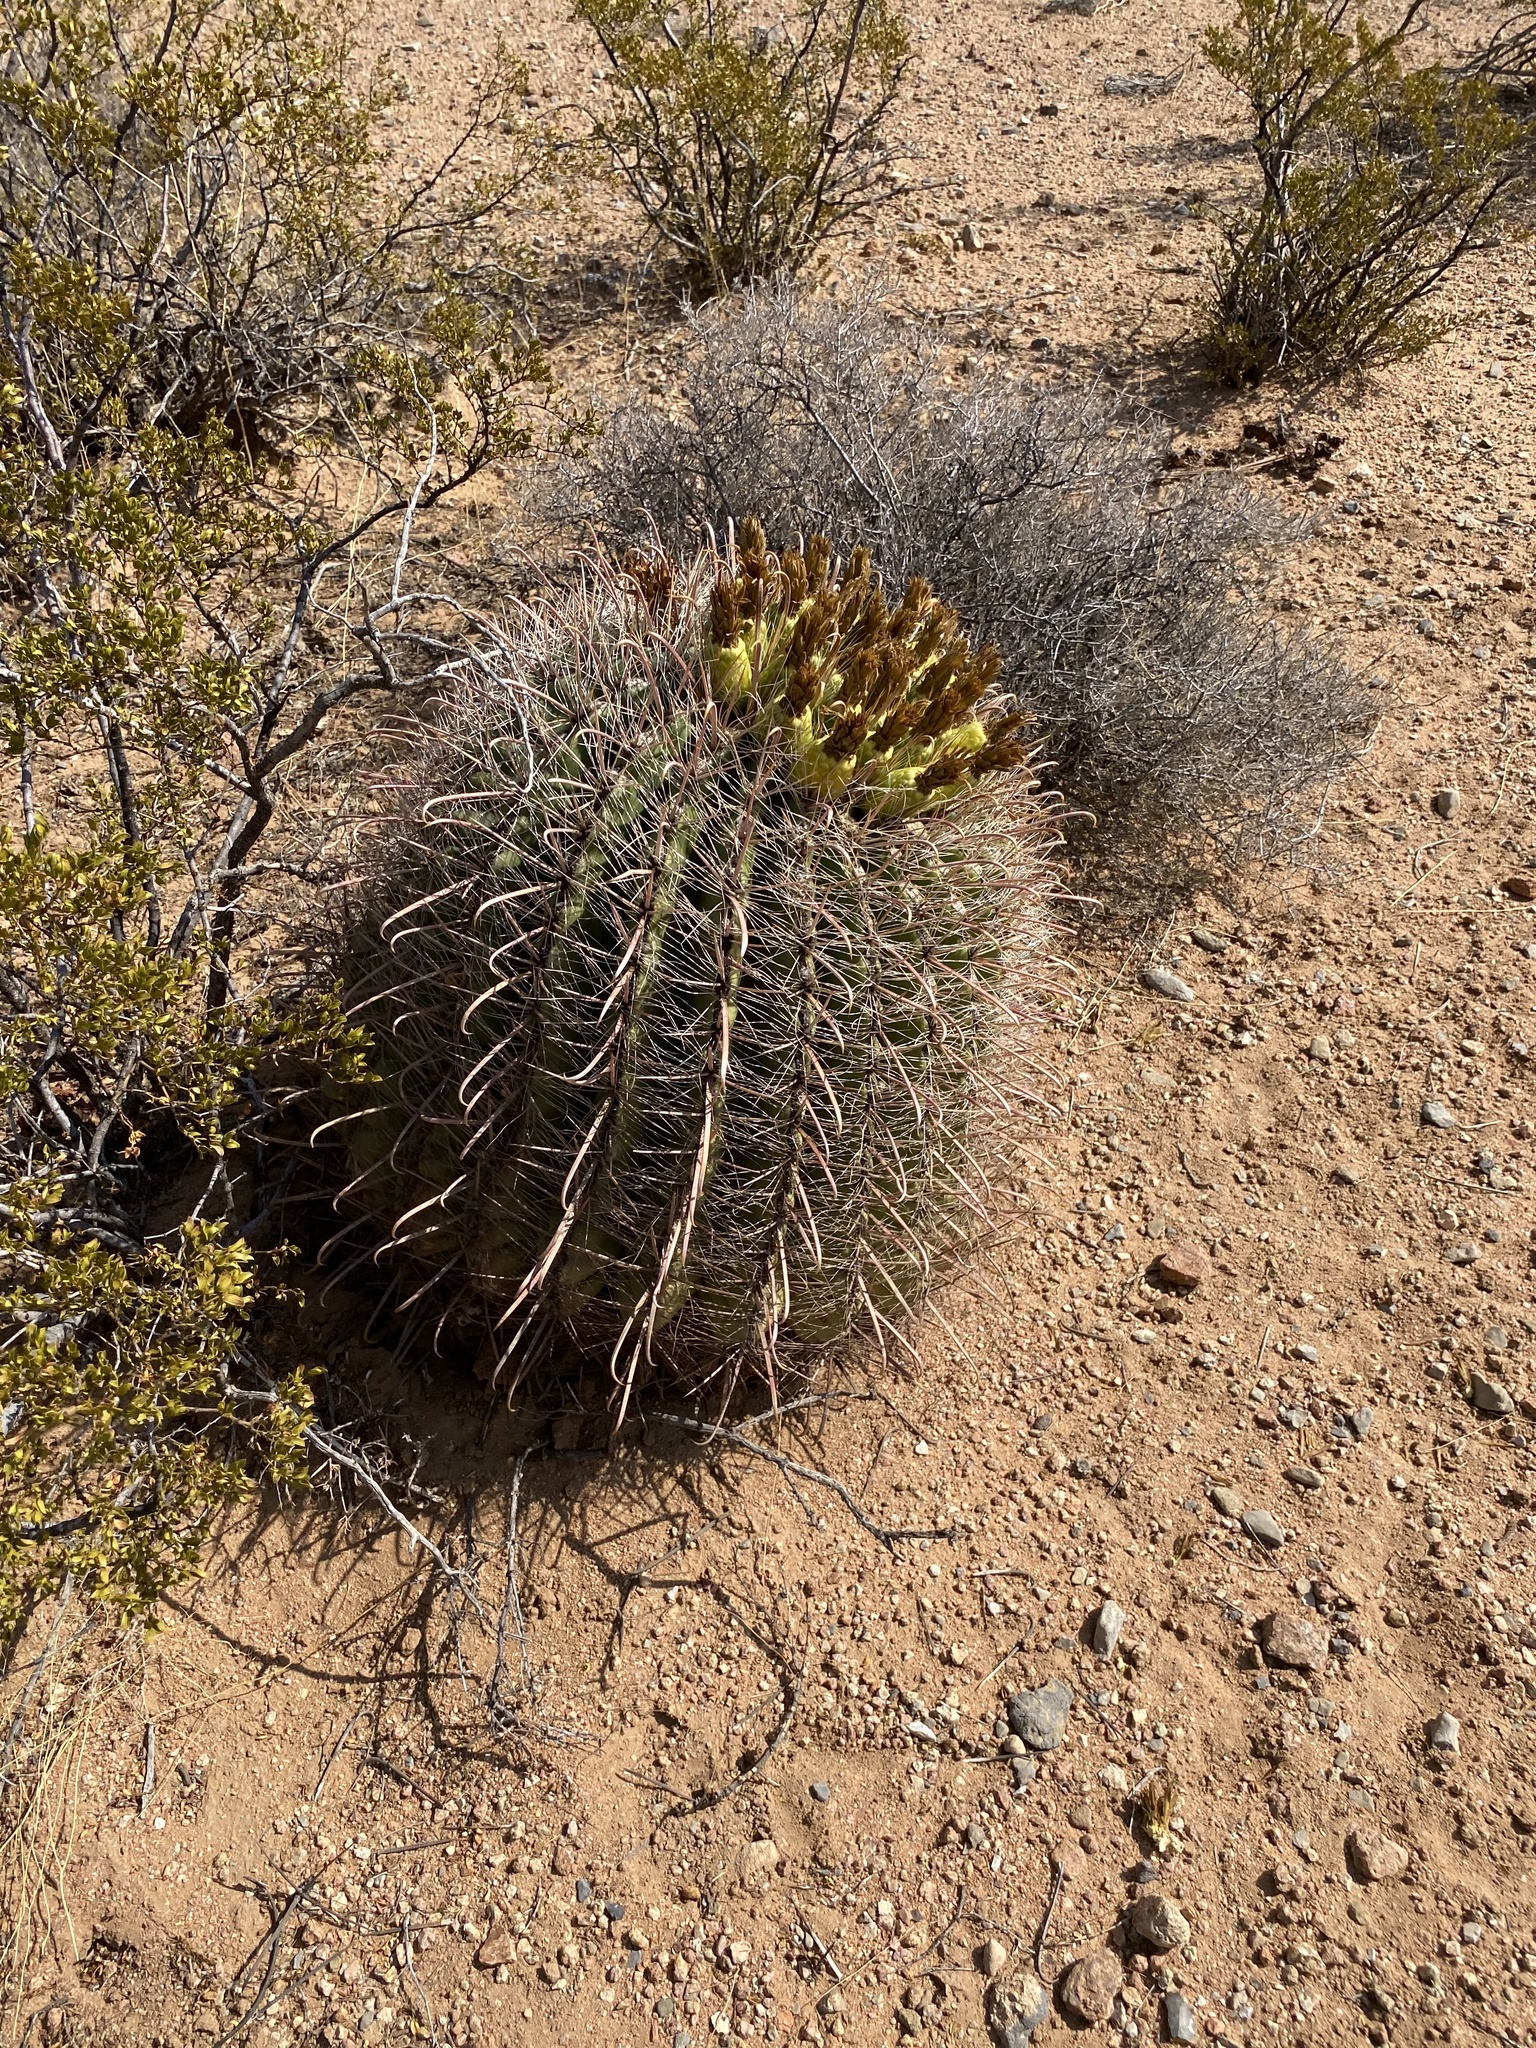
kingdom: Plantae
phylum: Tracheophyta
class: Magnoliopsida
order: Caryophyllales
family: Cactaceae
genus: Ferocactus
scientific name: Ferocactus wislizeni
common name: Candy barrel cactus
